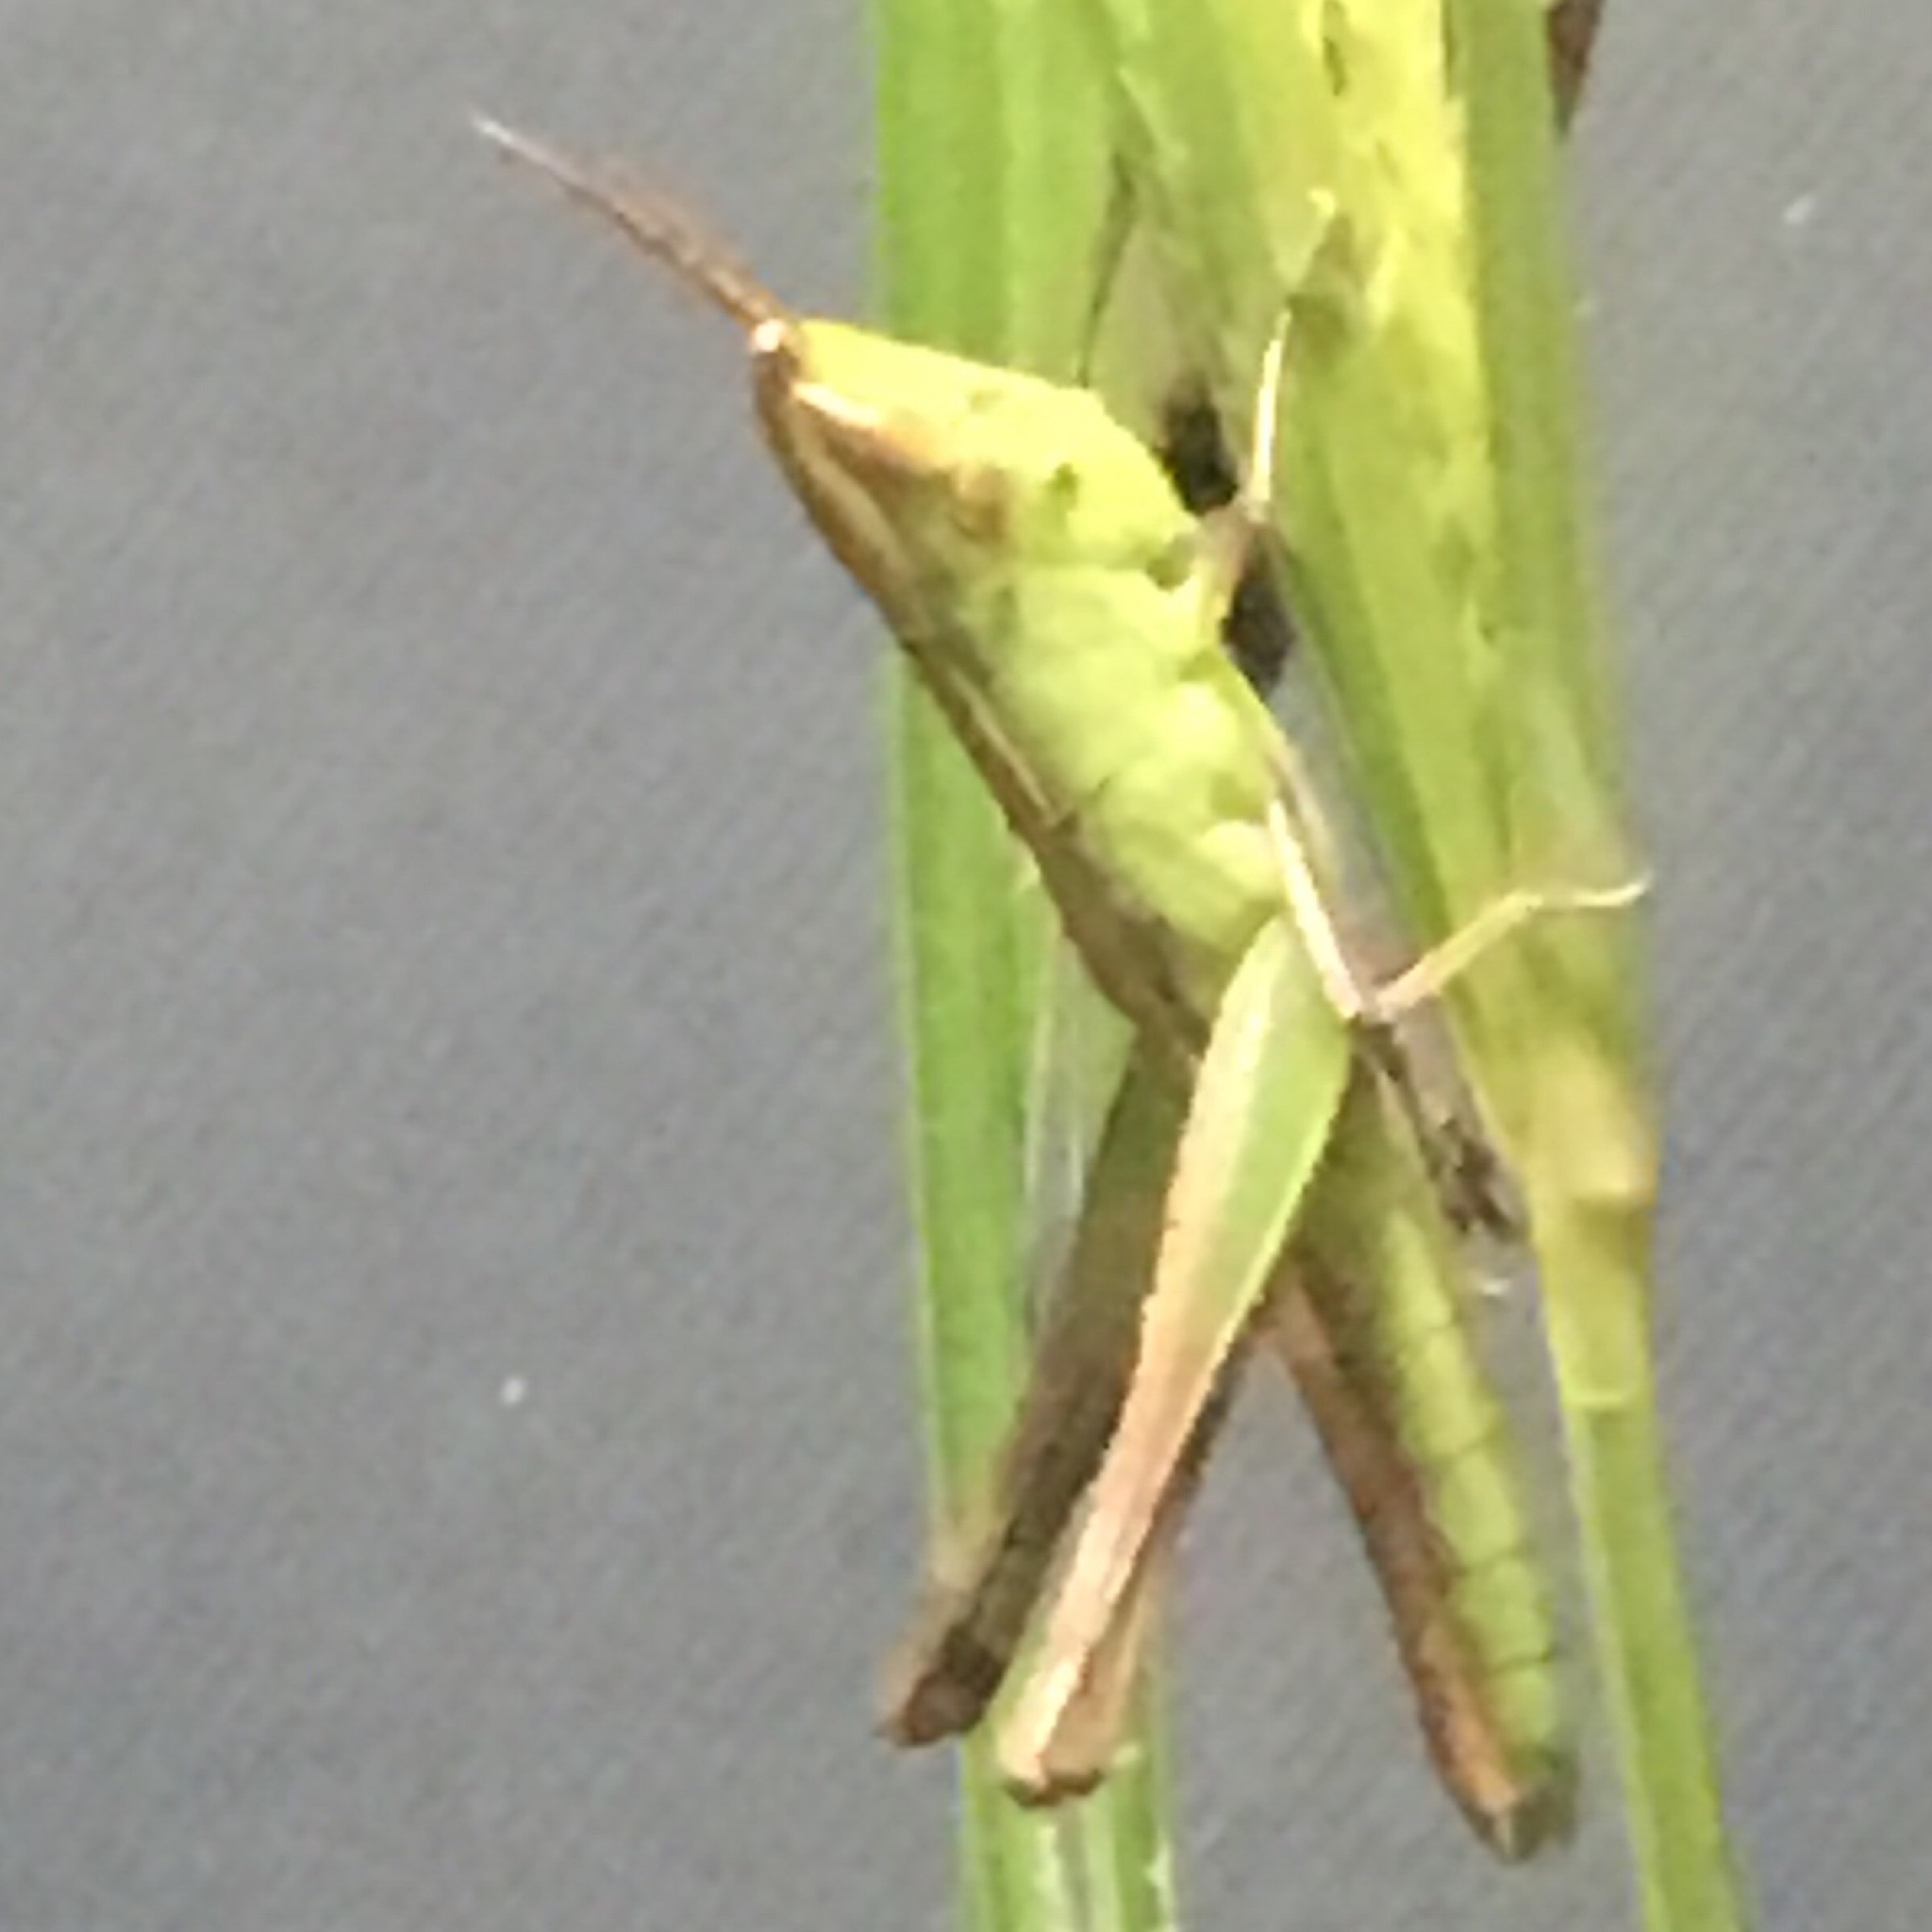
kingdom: Animalia
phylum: Arthropoda
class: Insecta
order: Orthoptera
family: Acrididae
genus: Syrbula
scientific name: Syrbula admirabilis
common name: Handsome grasshopper
